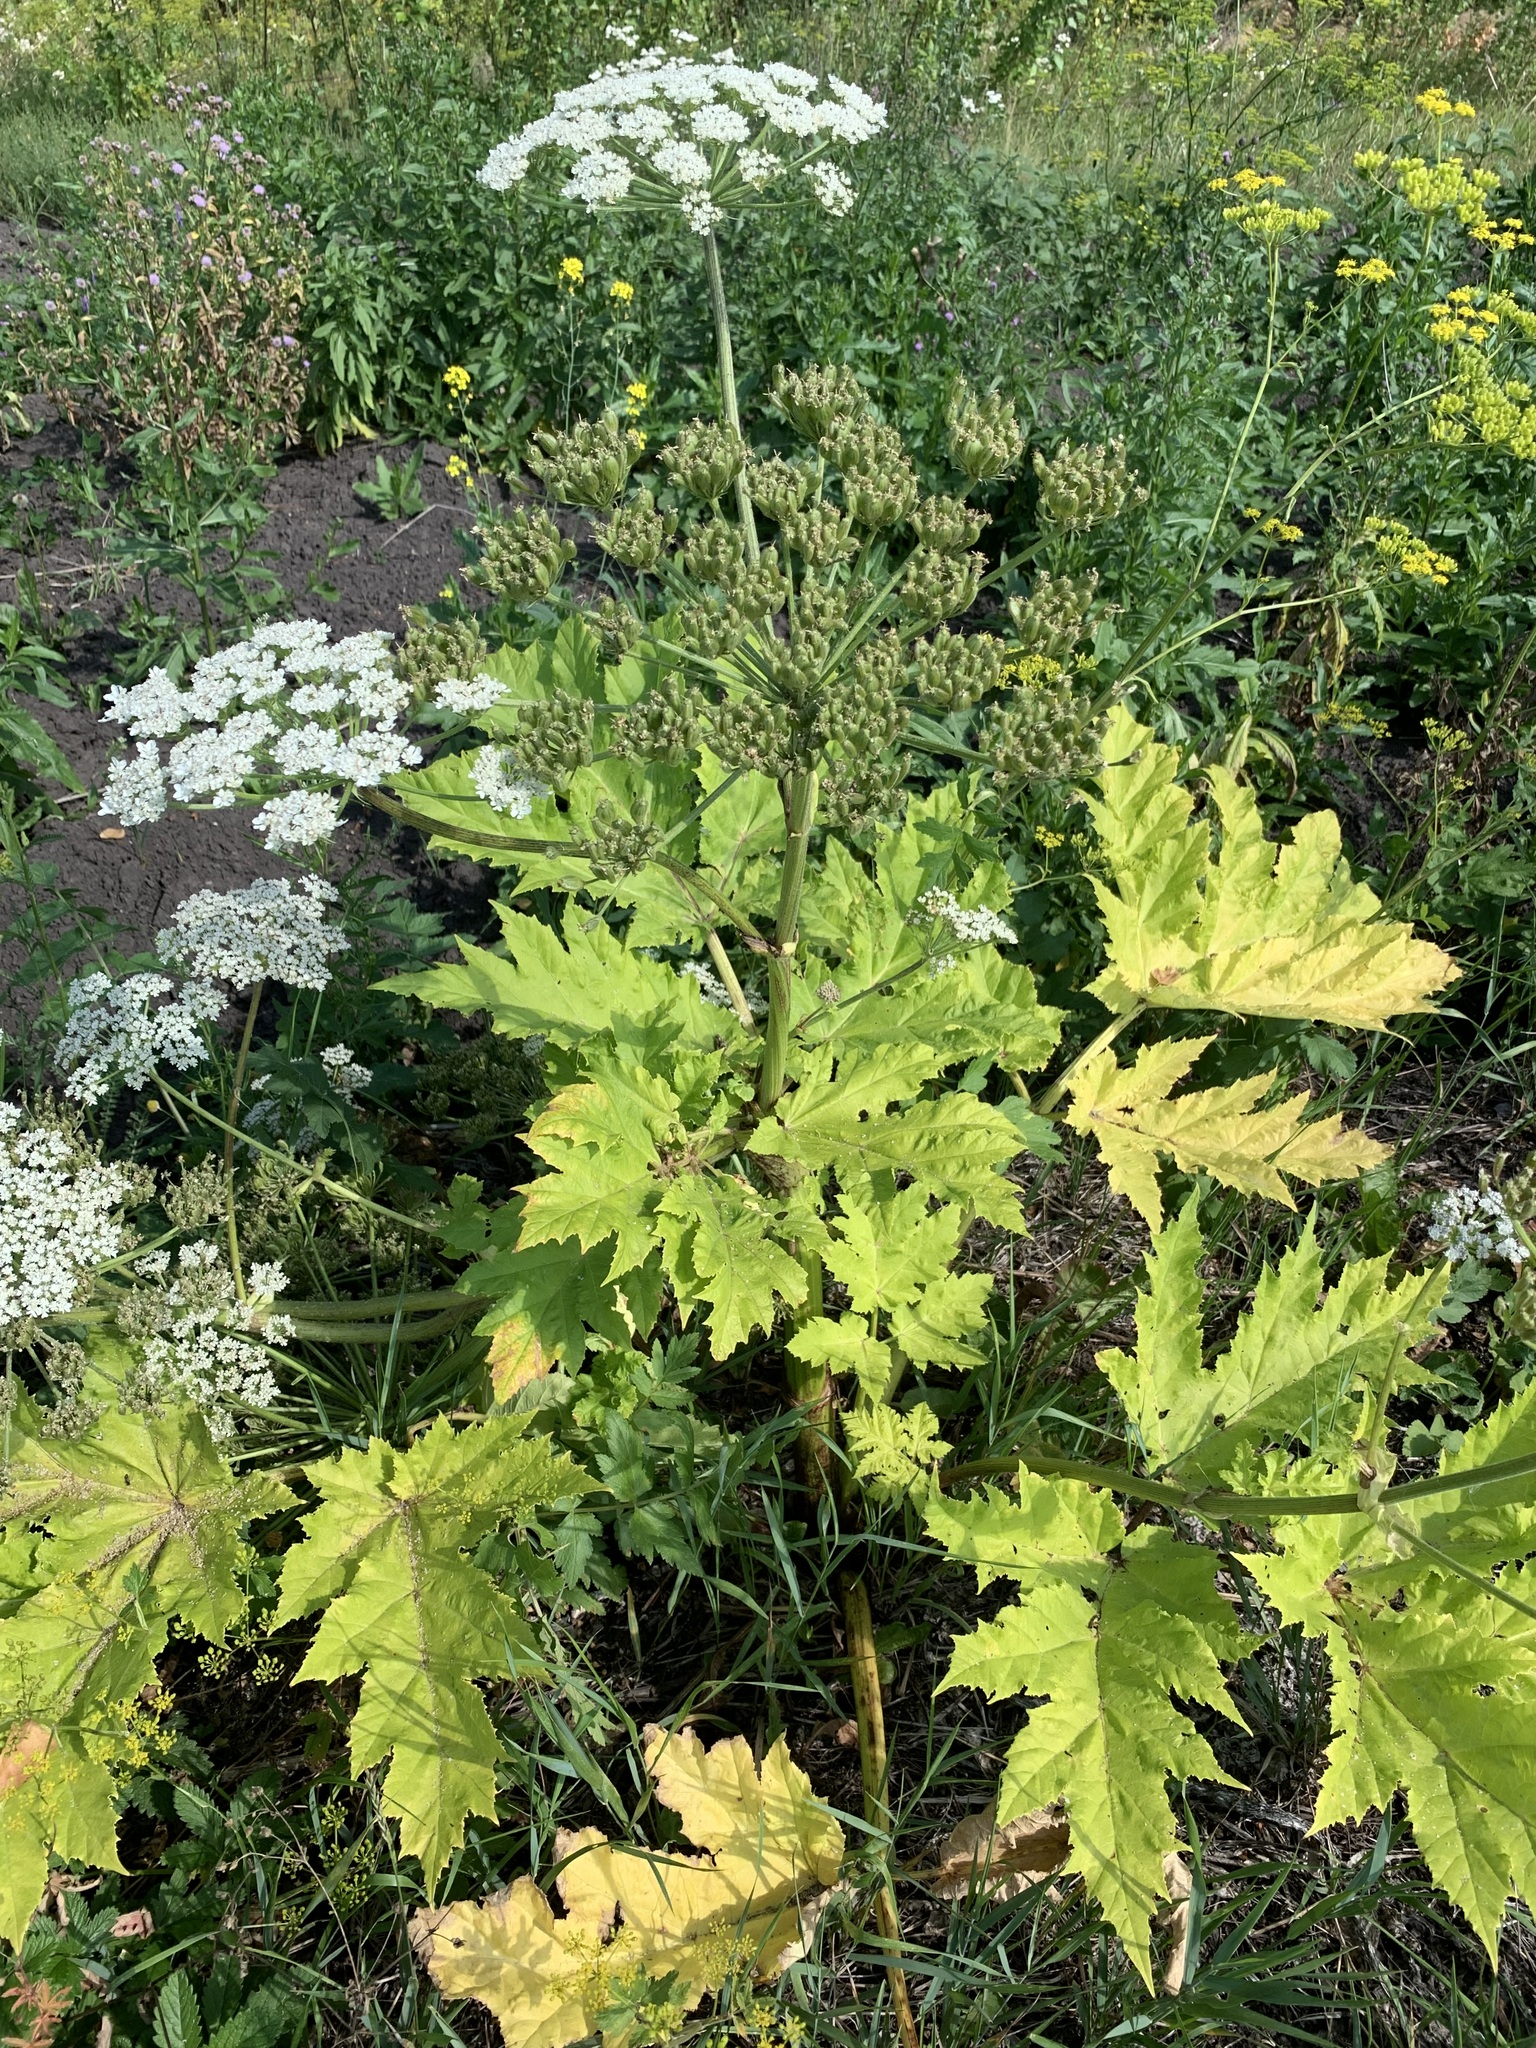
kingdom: Plantae
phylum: Tracheophyta
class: Magnoliopsida
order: Apiales
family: Apiaceae
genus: Heracleum
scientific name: Heracleum sosnowskyi
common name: Sosnowsky's hogweed
